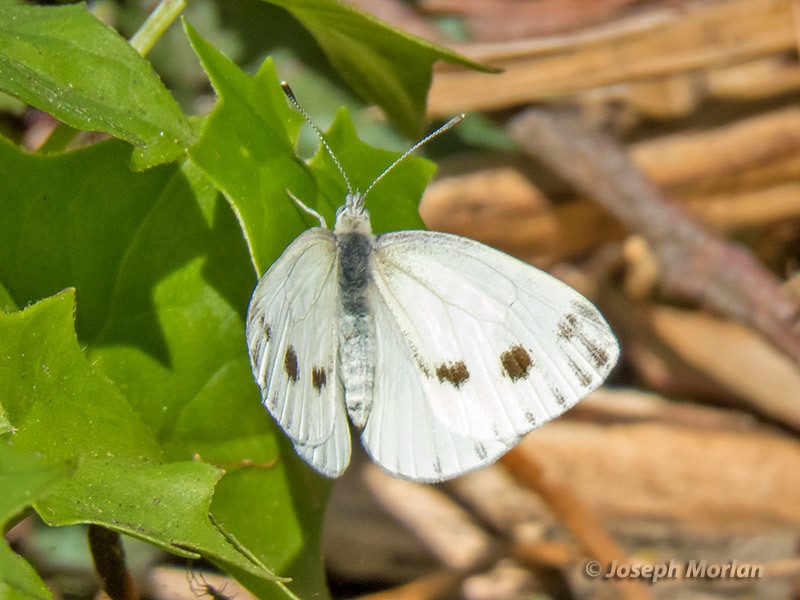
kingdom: Animalia
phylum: Arthropoda
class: Insecta
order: Lepidoptera
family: Pieridae
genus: Pieris
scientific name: Pieris marginalis
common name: Margined white
